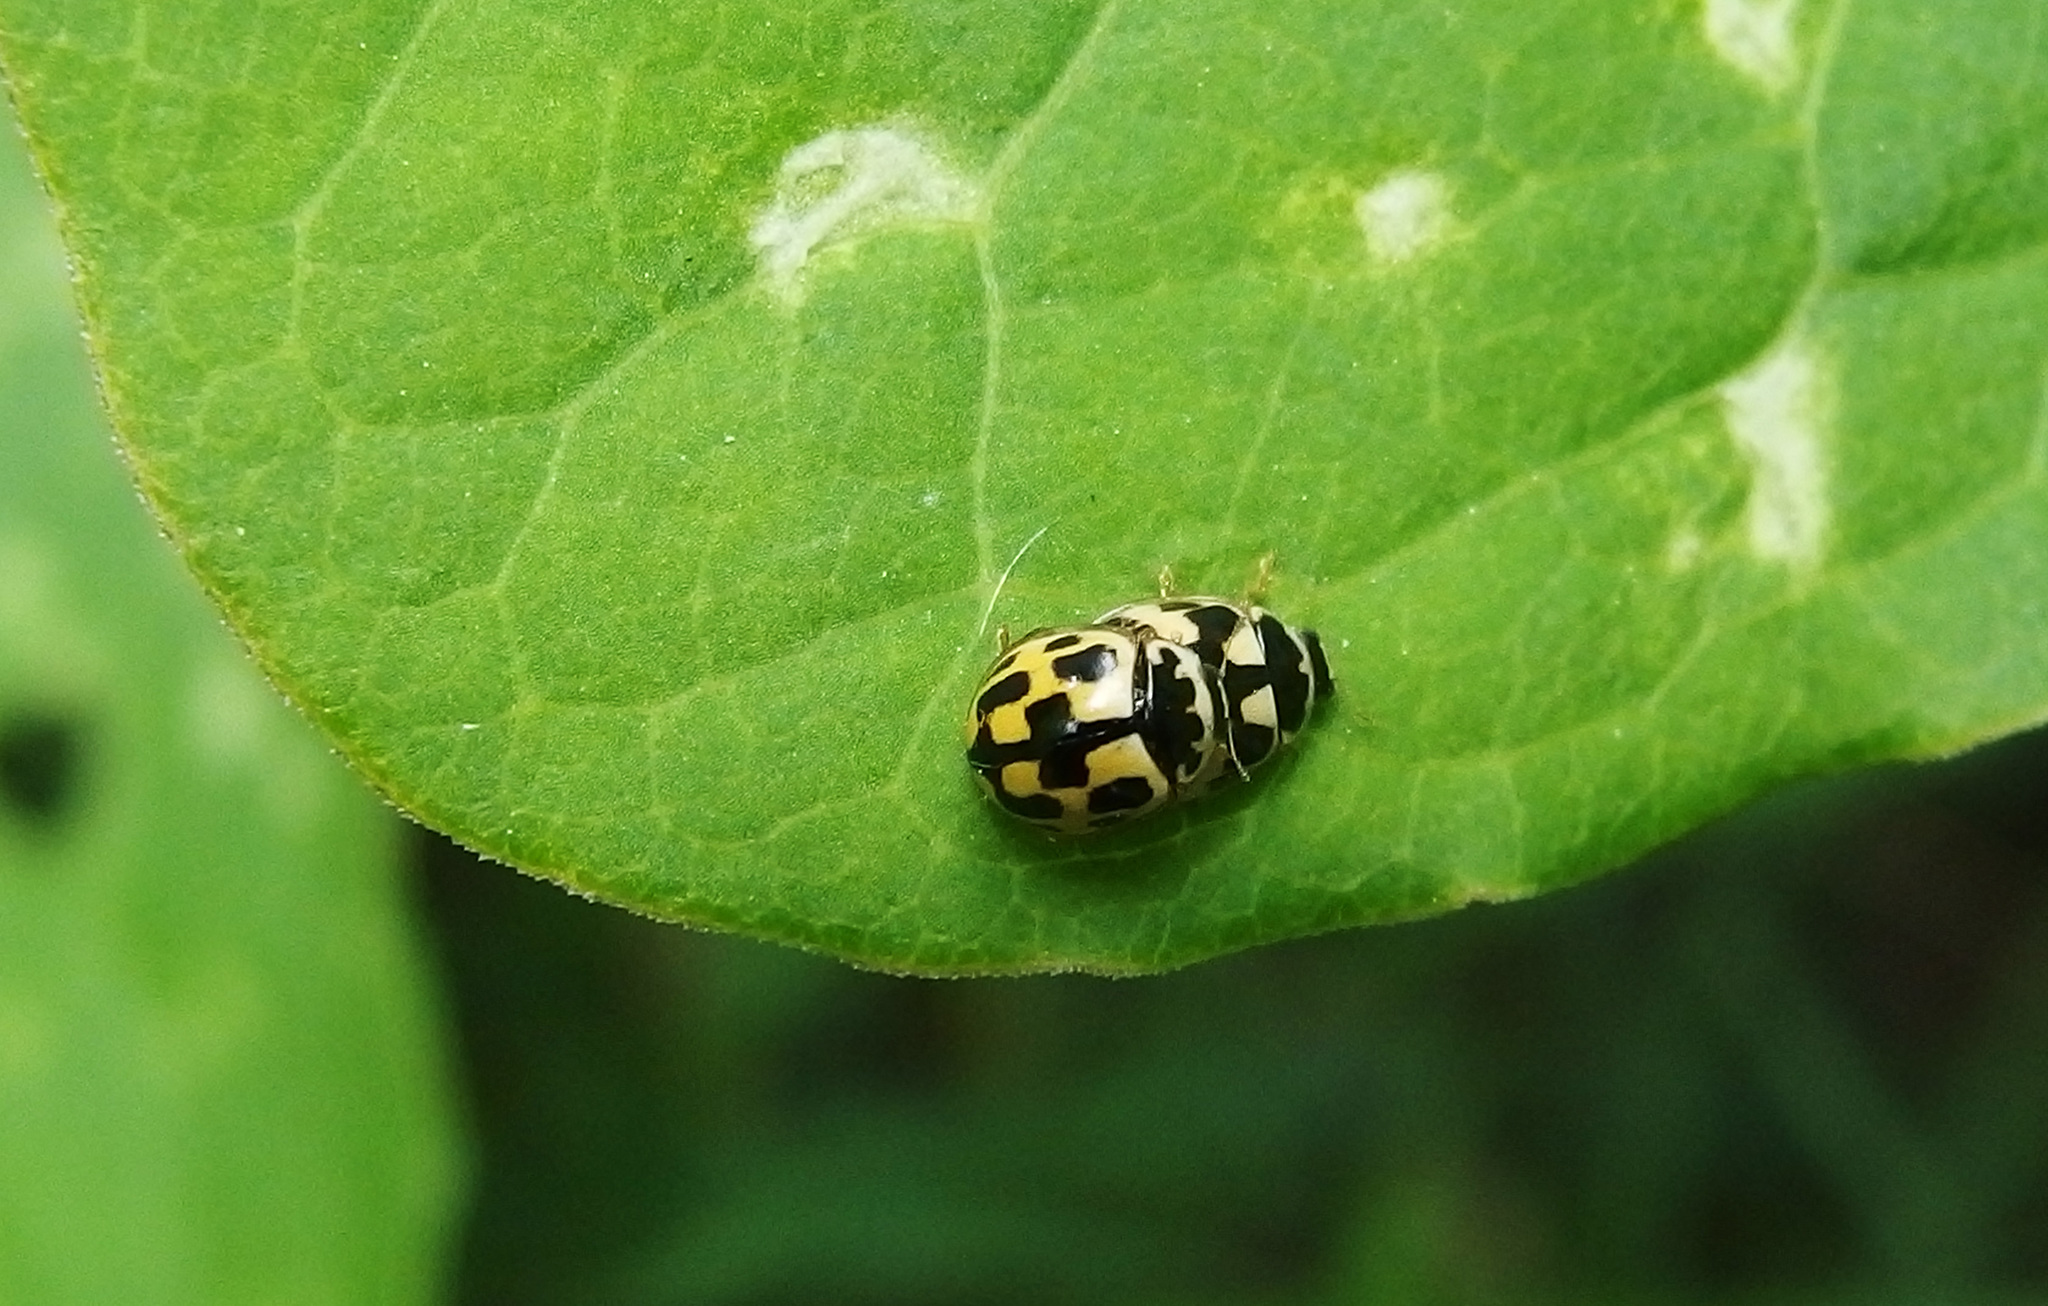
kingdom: Animalia
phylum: Arthropoda
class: Insecta
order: Coleoptera
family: Coccinellidae
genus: Propylaea
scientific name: Propylaea quatuordecimpunctata
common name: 14-spotted ladybird beetle
